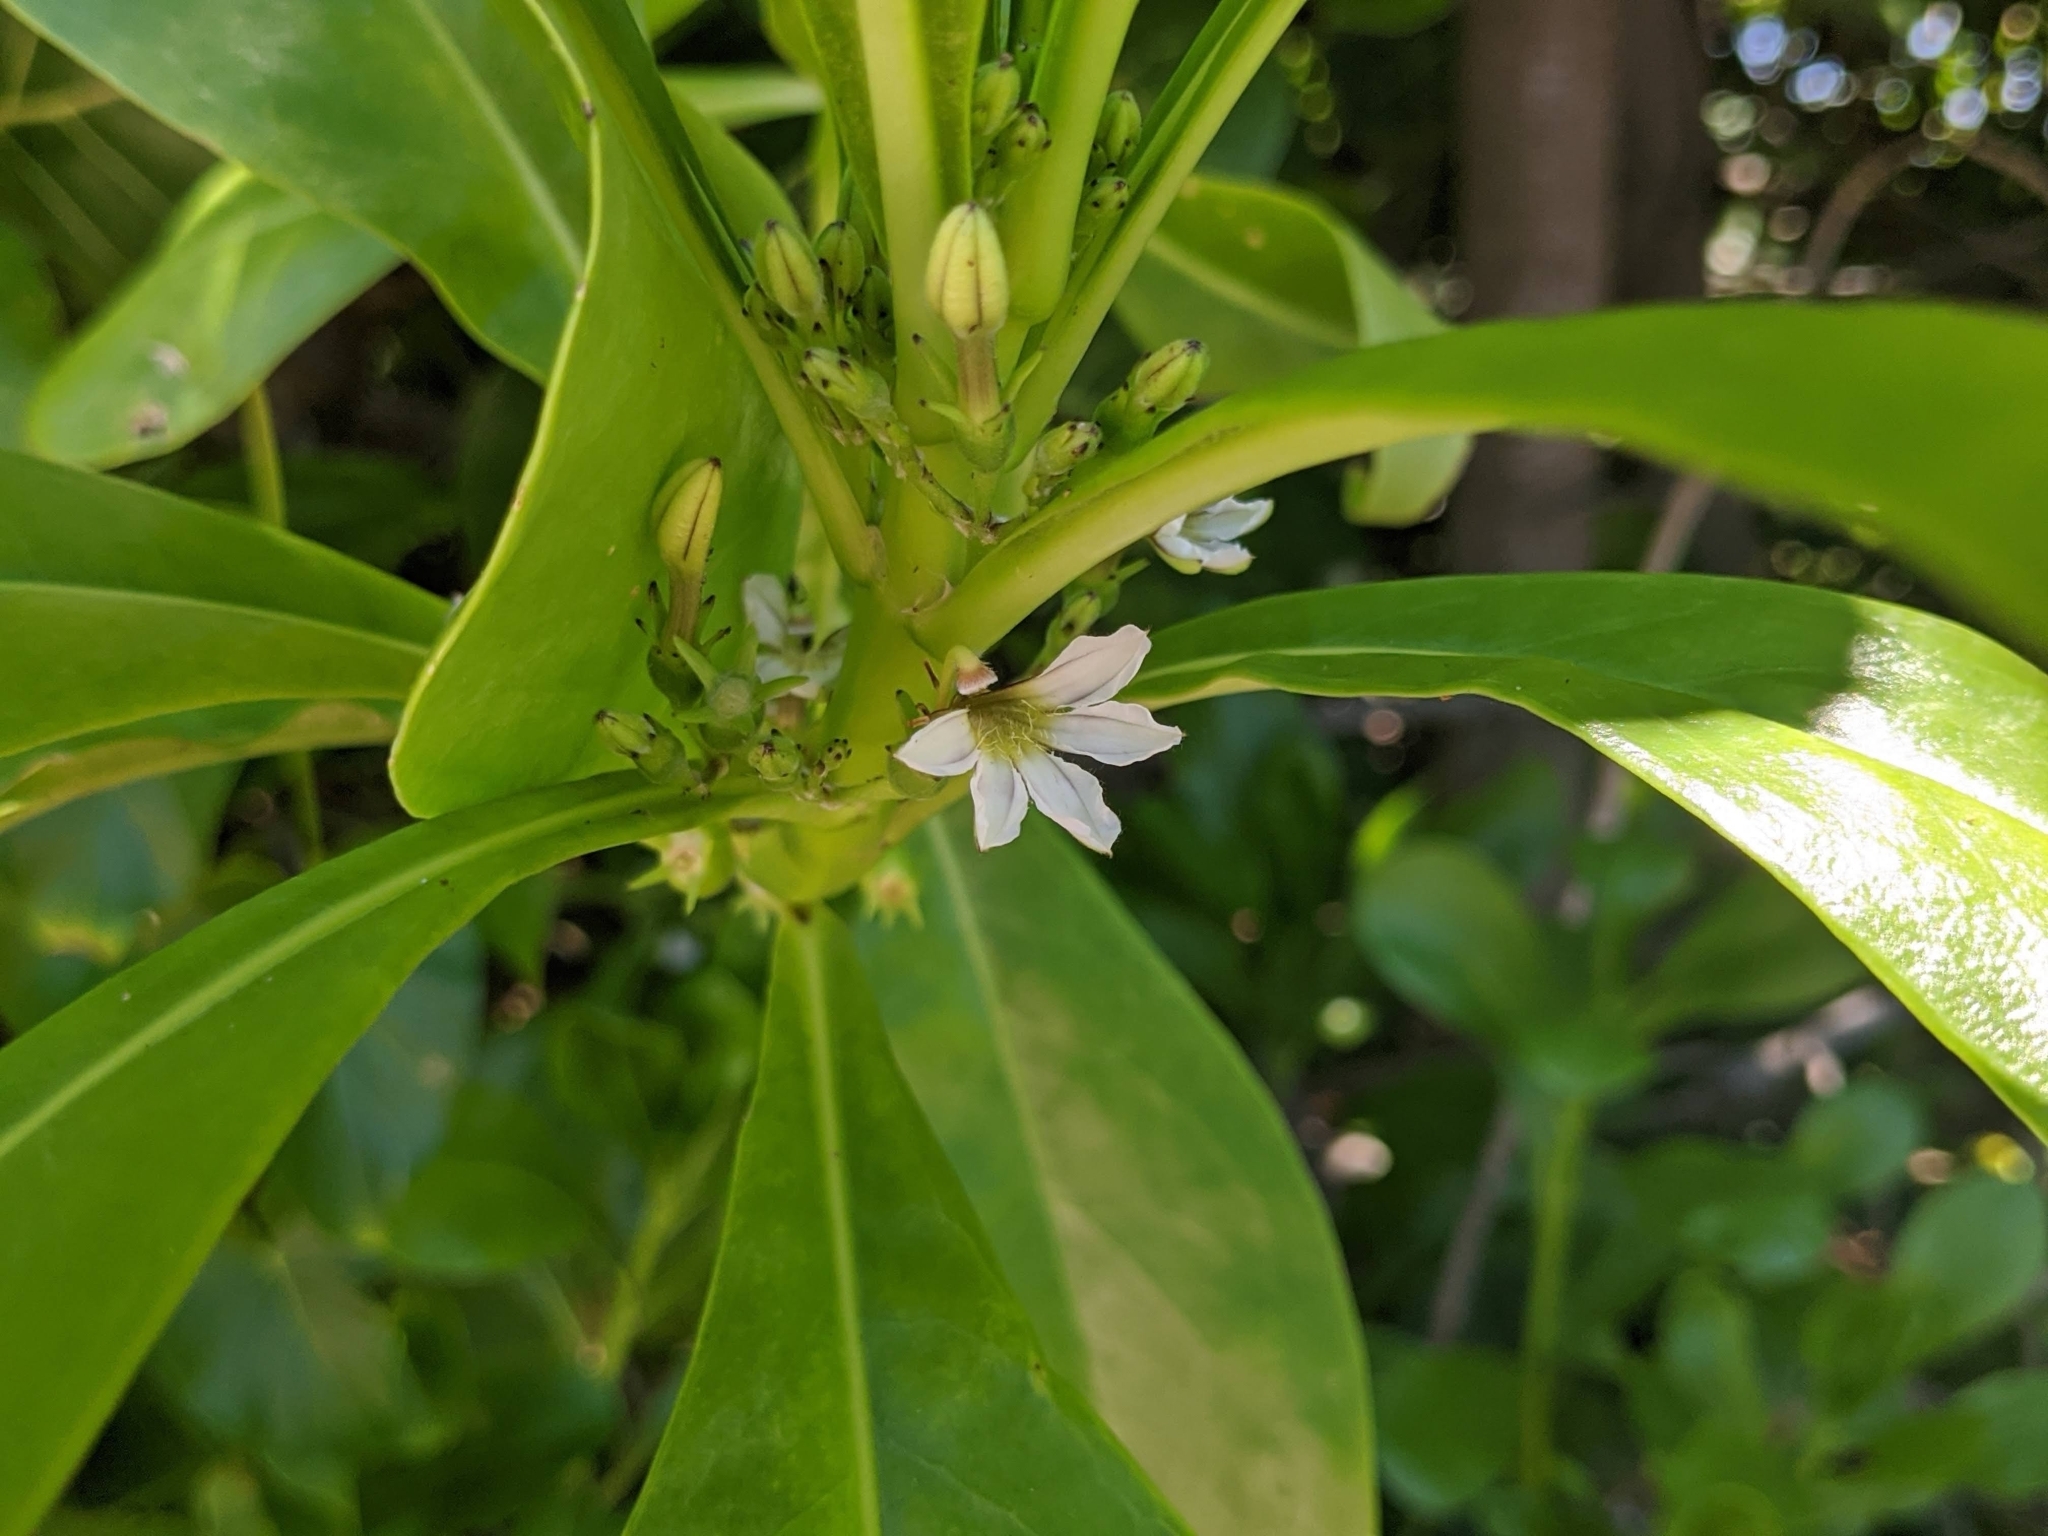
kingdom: Plantae
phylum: Tracheophyta
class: Magnoliopsida
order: Asterales
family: Goodeniaceae
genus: Scaevola
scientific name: Scaevola taccada
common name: Sea lettucetree
